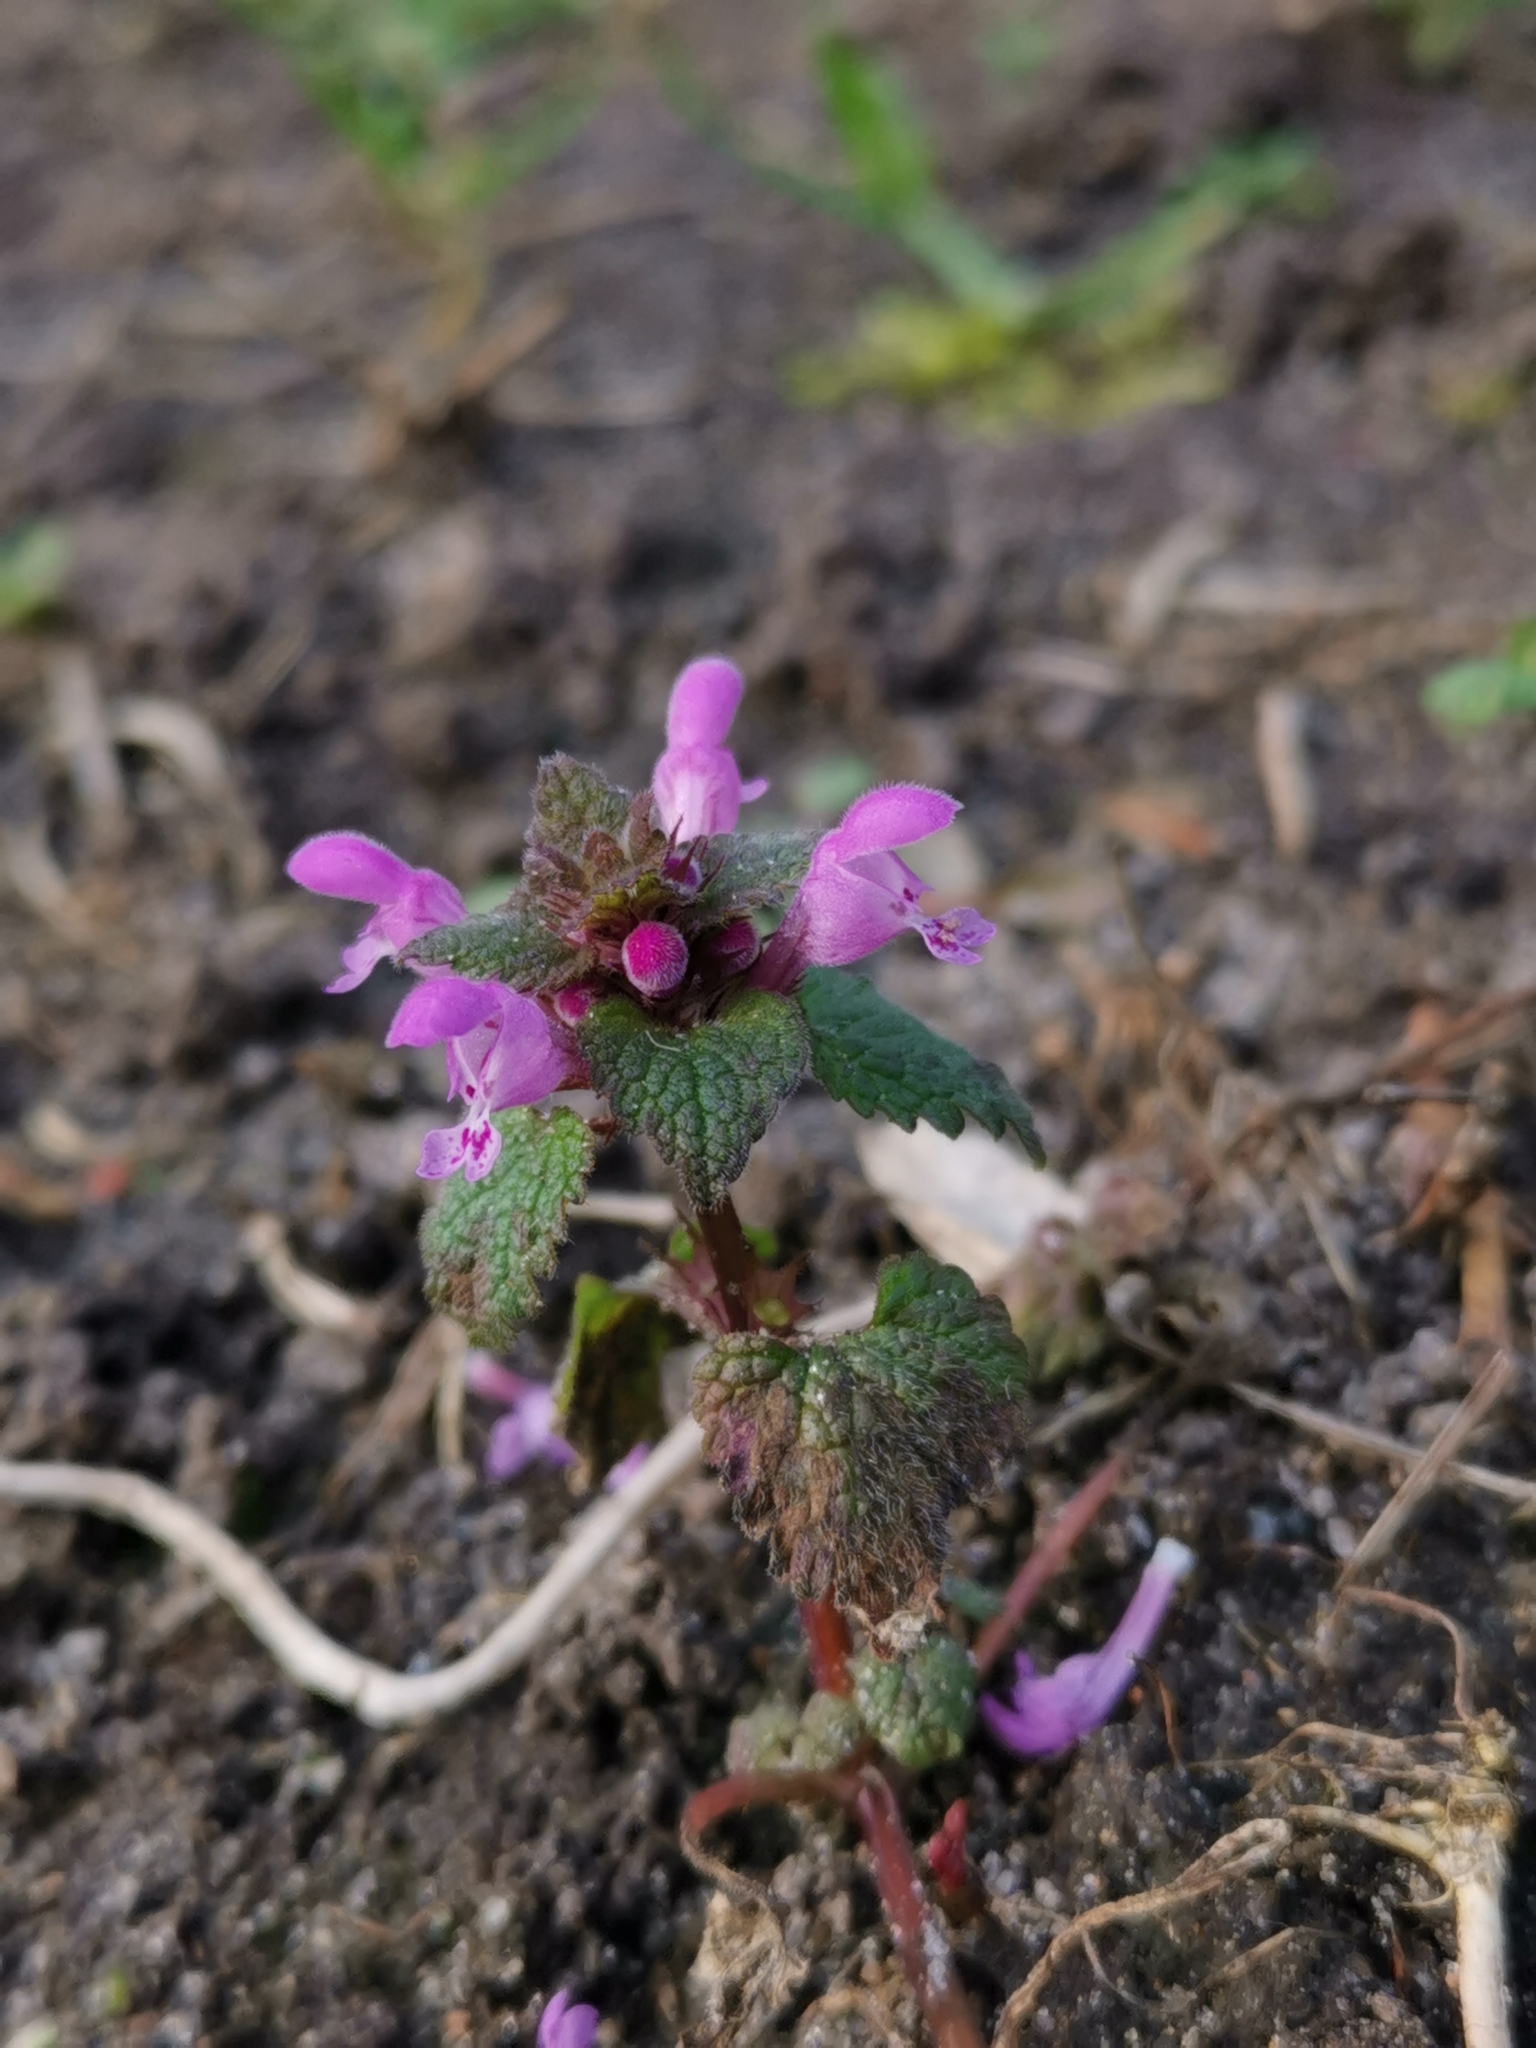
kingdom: Plantae
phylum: Tracheophyta
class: Magnoliopsida
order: Lamiales
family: Lamiaceae
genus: Lamium
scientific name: Lamium purpureum
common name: Red dead-nettle
